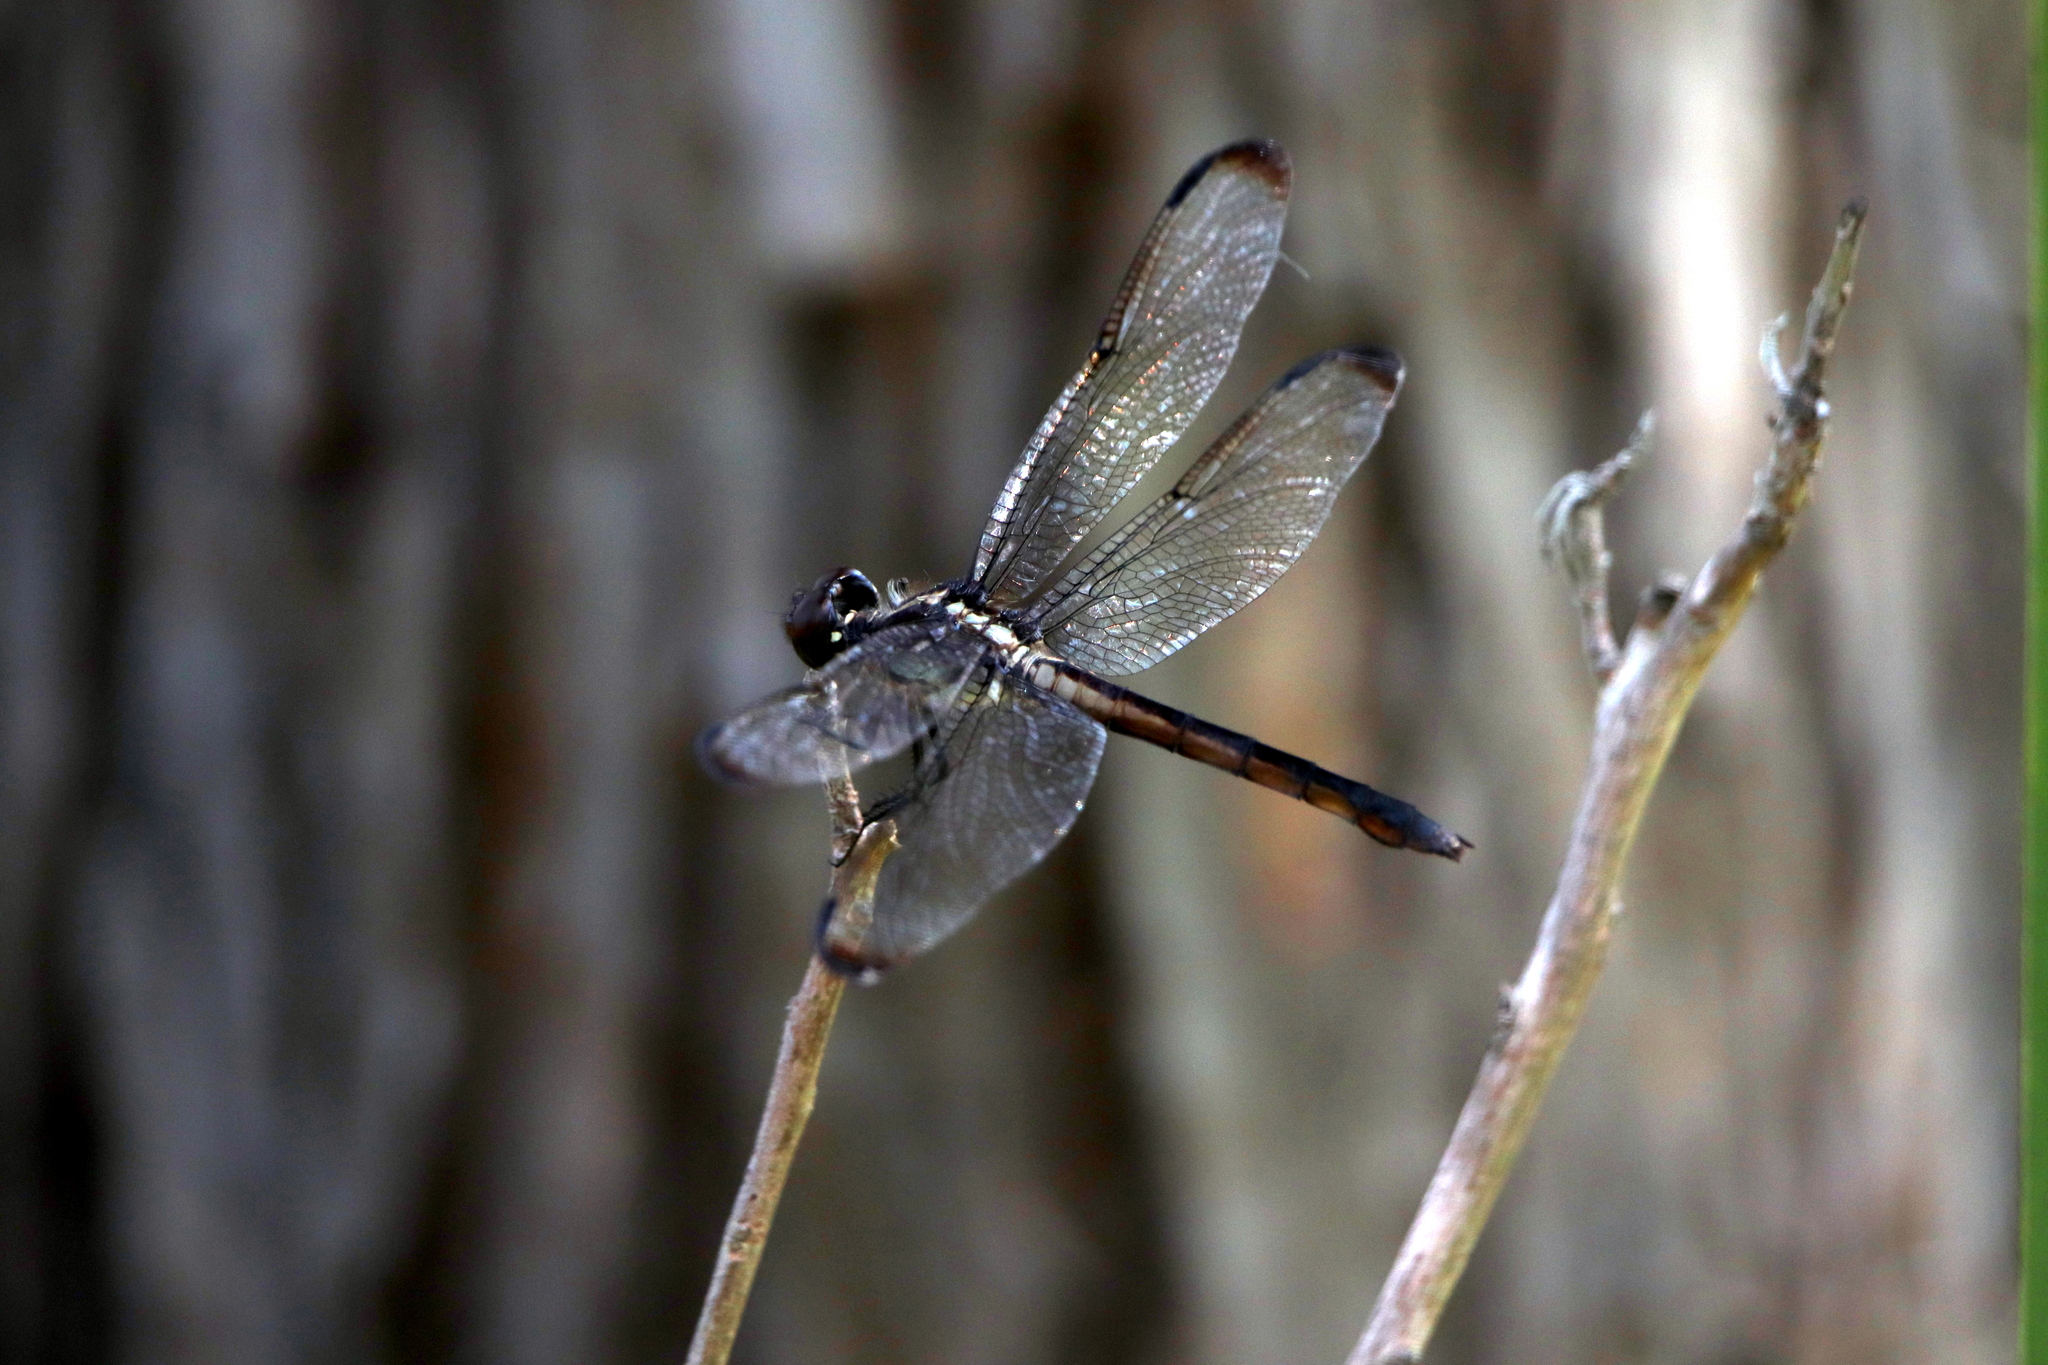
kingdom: Animalia
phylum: Arthropoda
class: Insecta
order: Odonata
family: Libellulidae
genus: Libellula
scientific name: Libellula incesta
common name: Slaty skimmer
